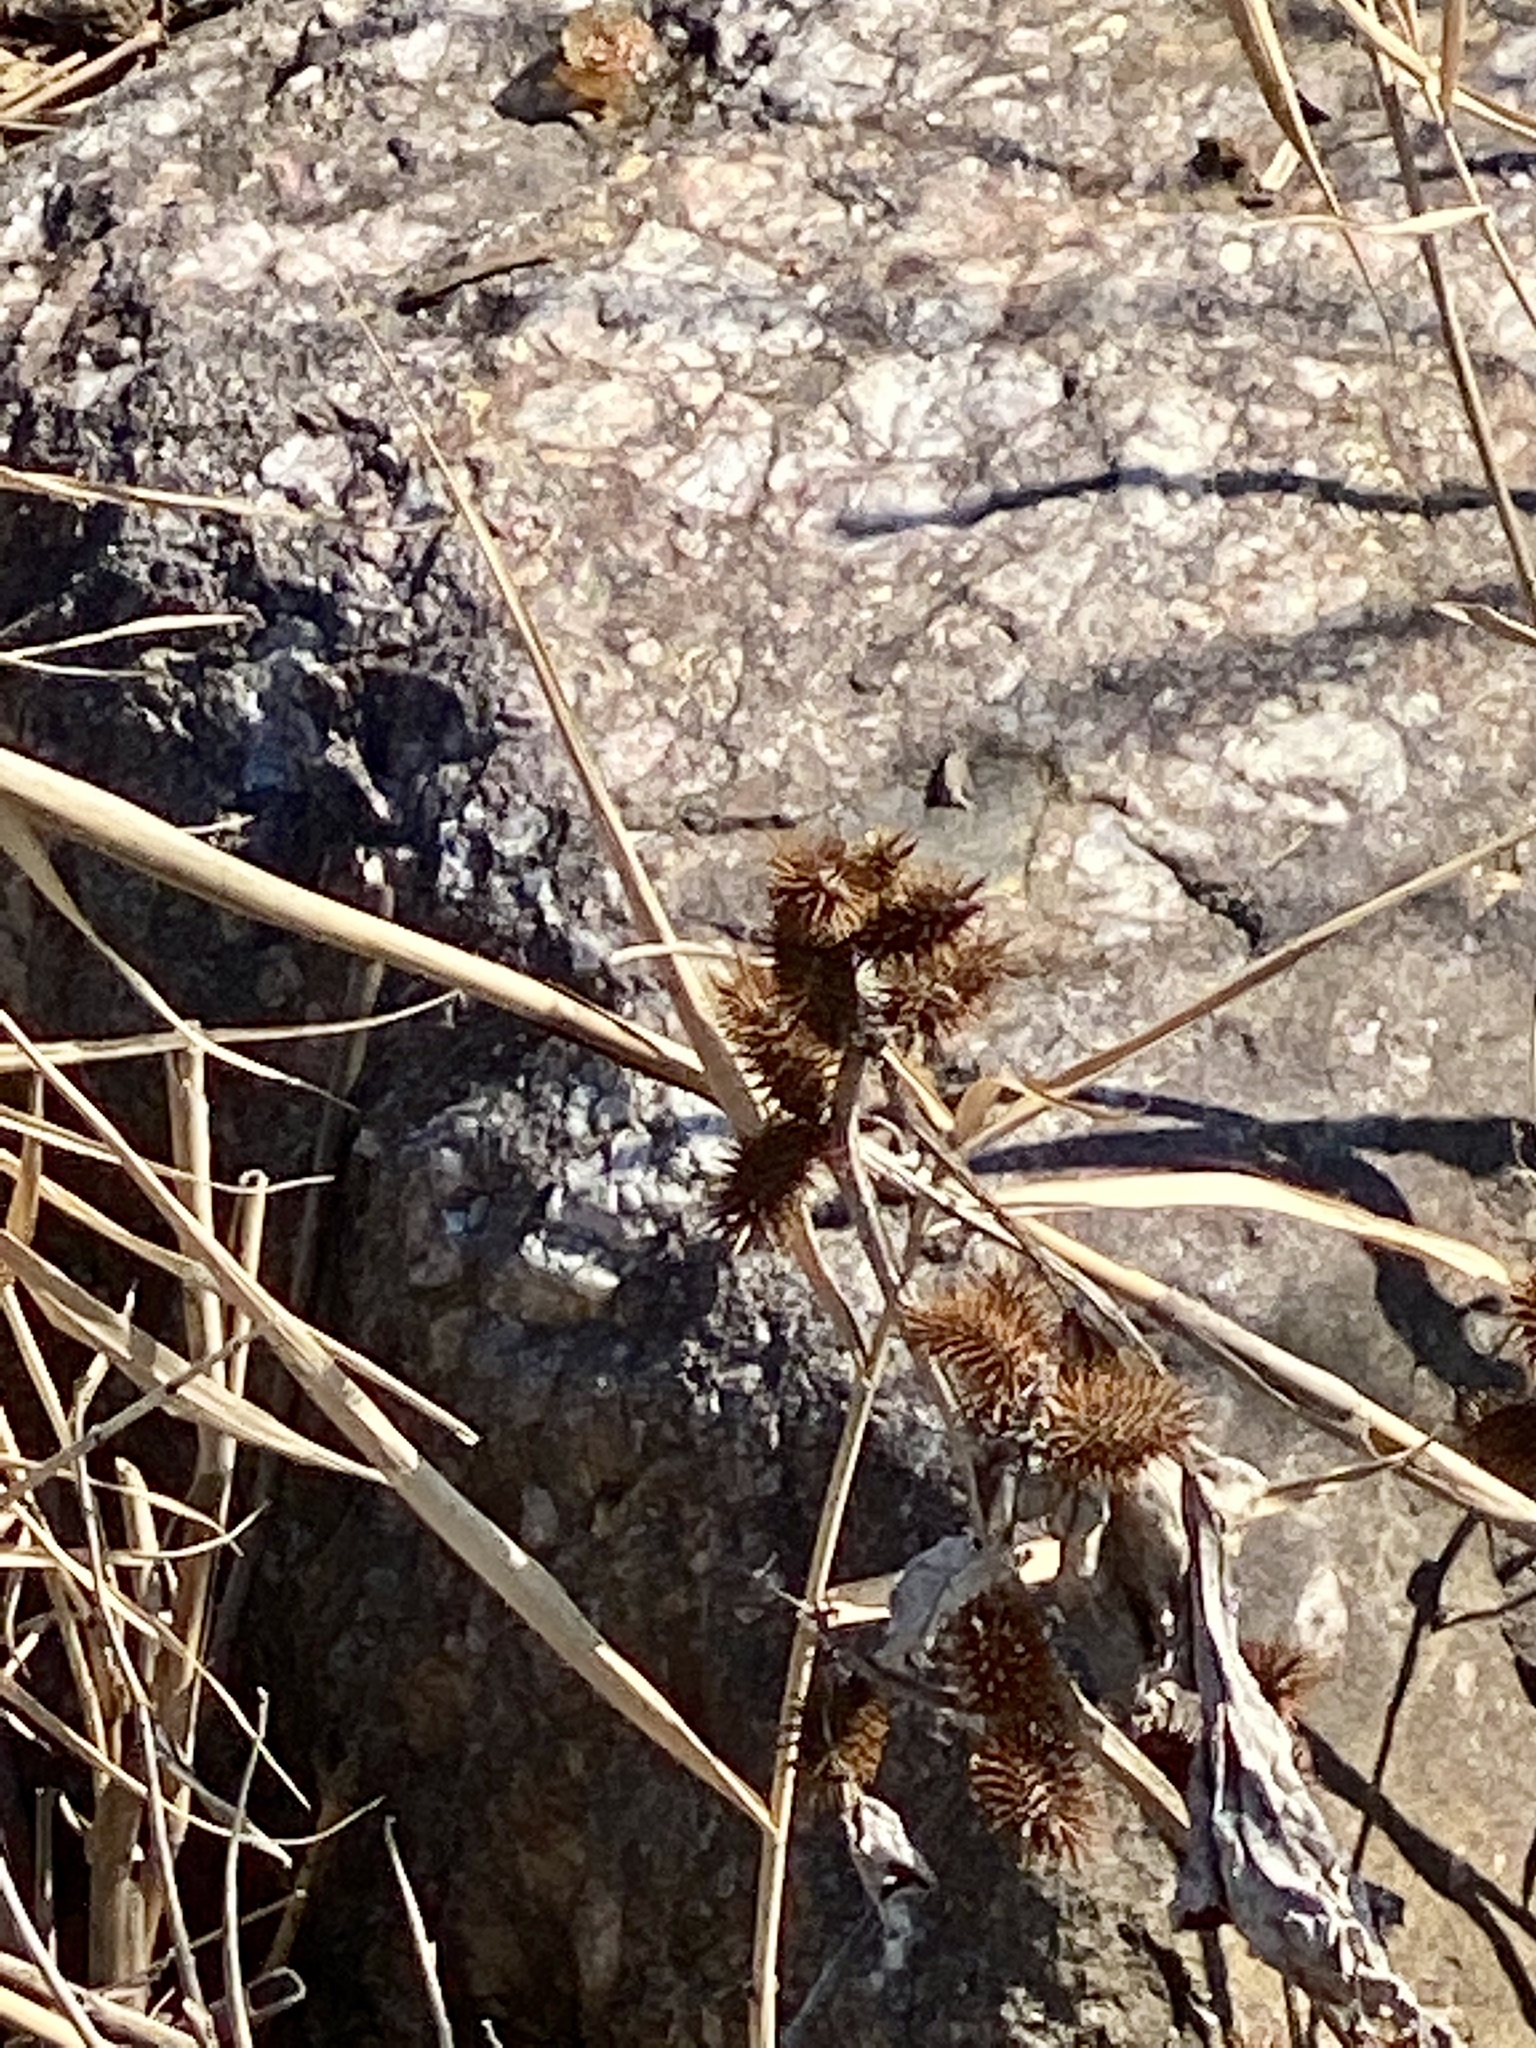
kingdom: Plantae
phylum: Tracheophyta
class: Magnoliopsida
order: Asterales
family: Asteraceae
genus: Xanthium
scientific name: Xanthium strumarium
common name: Rough cocklebur
